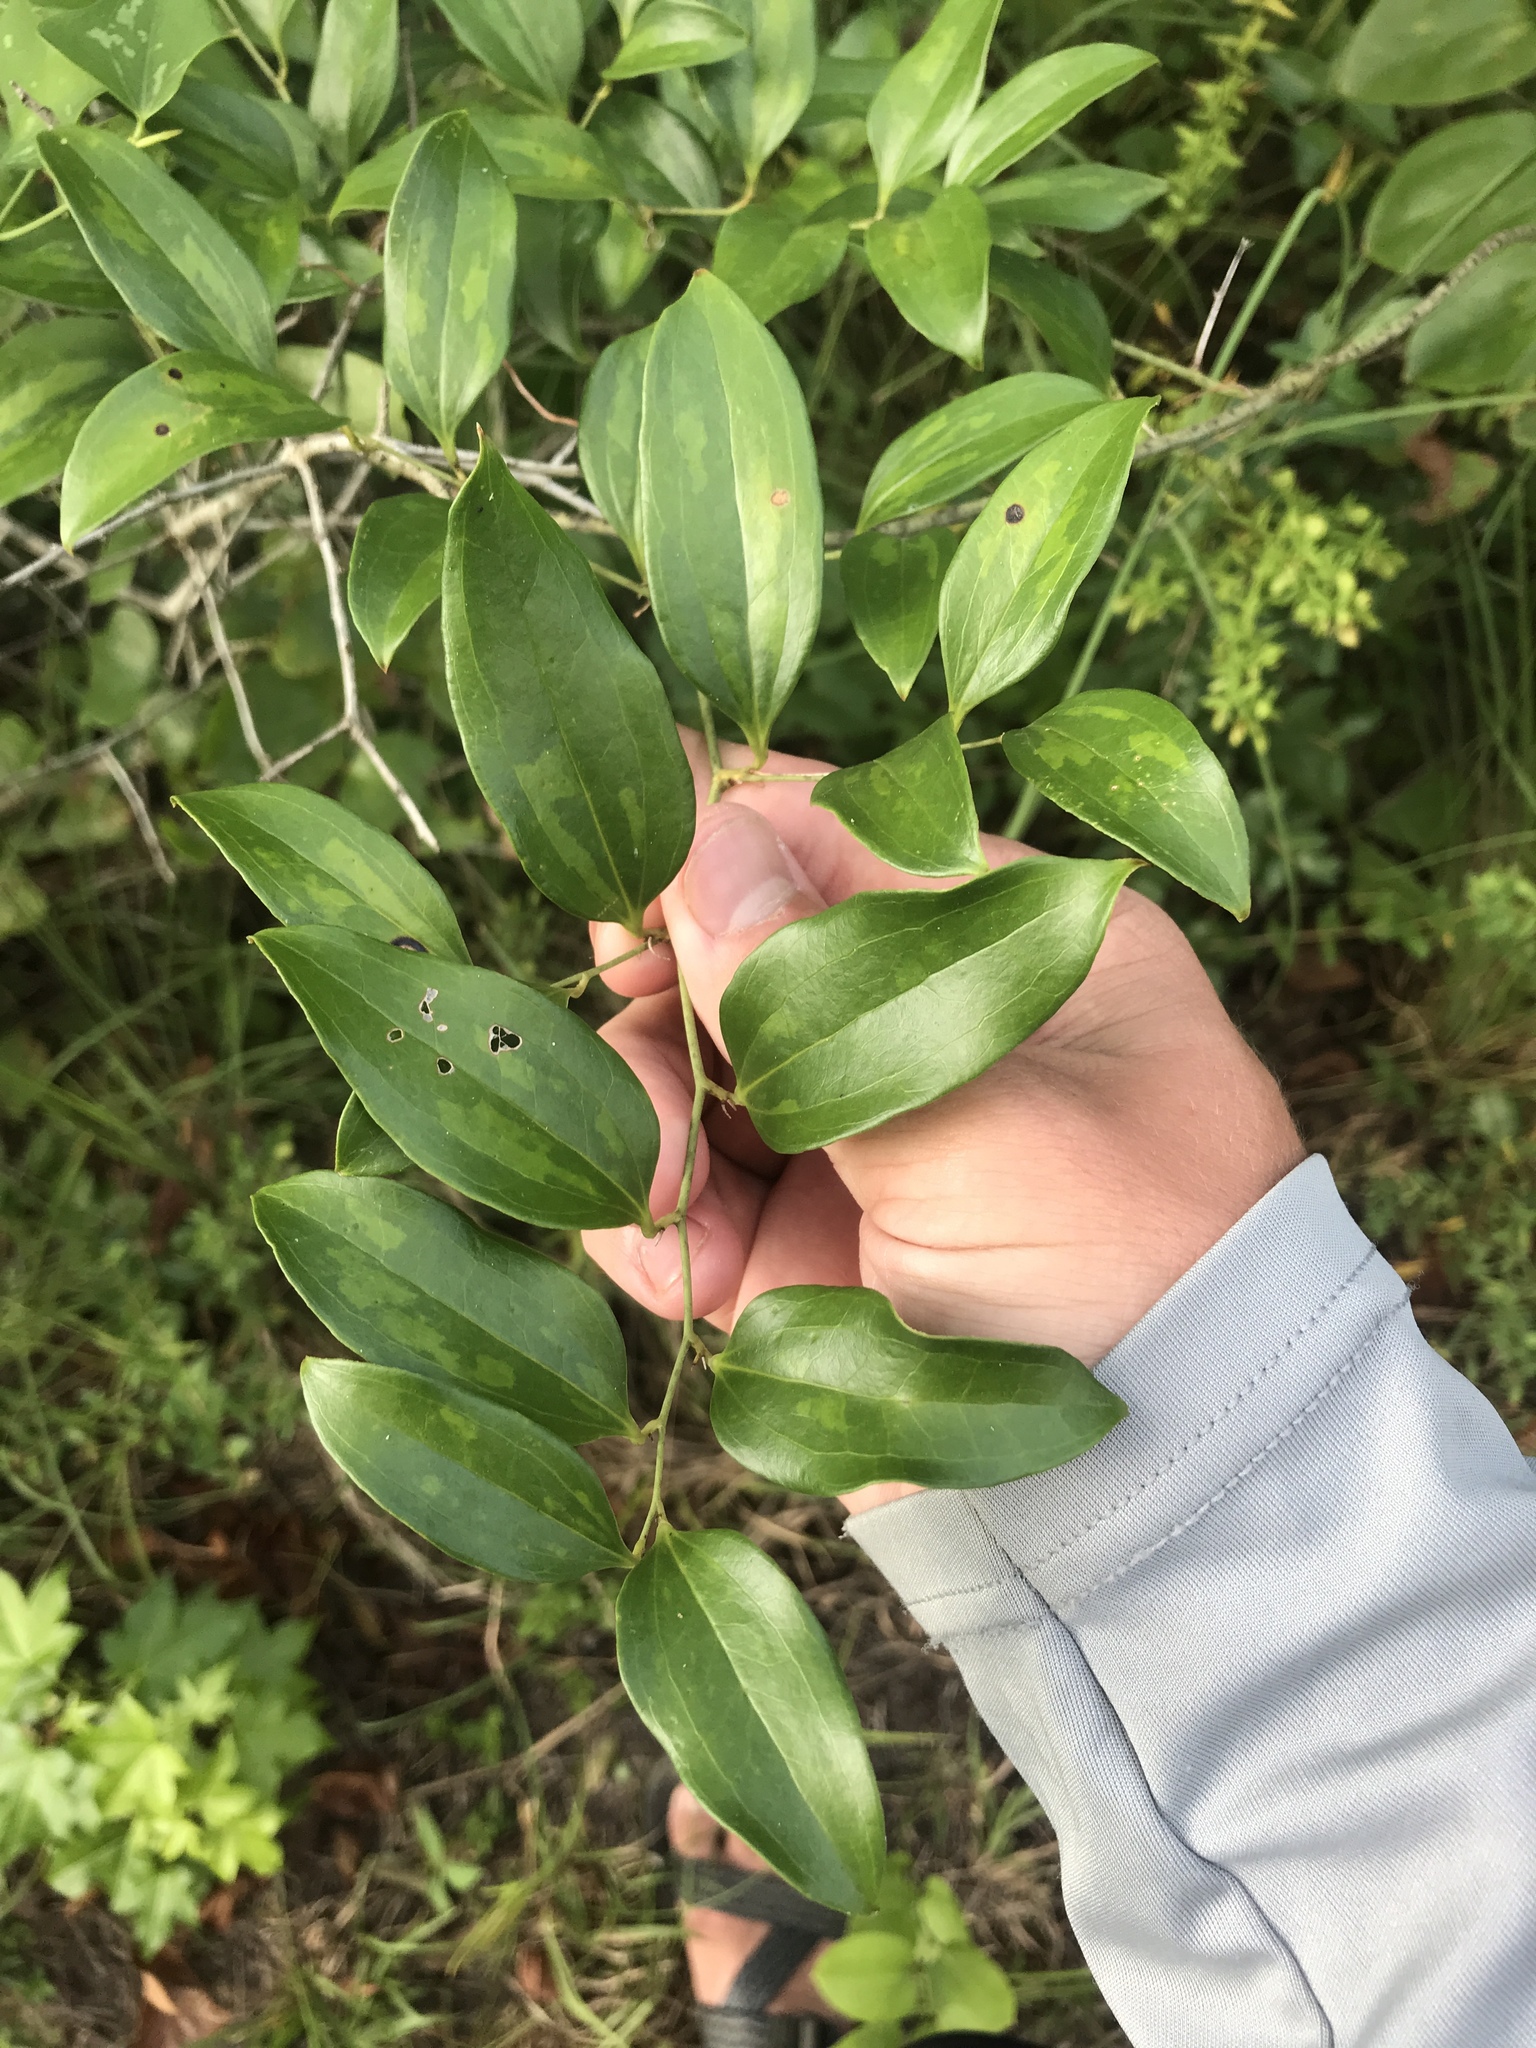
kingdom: Plantae
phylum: Tracheophyta
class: Liliopsida
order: Liliales
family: Smilacaceae
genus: Smilax
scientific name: Smilax maritima
